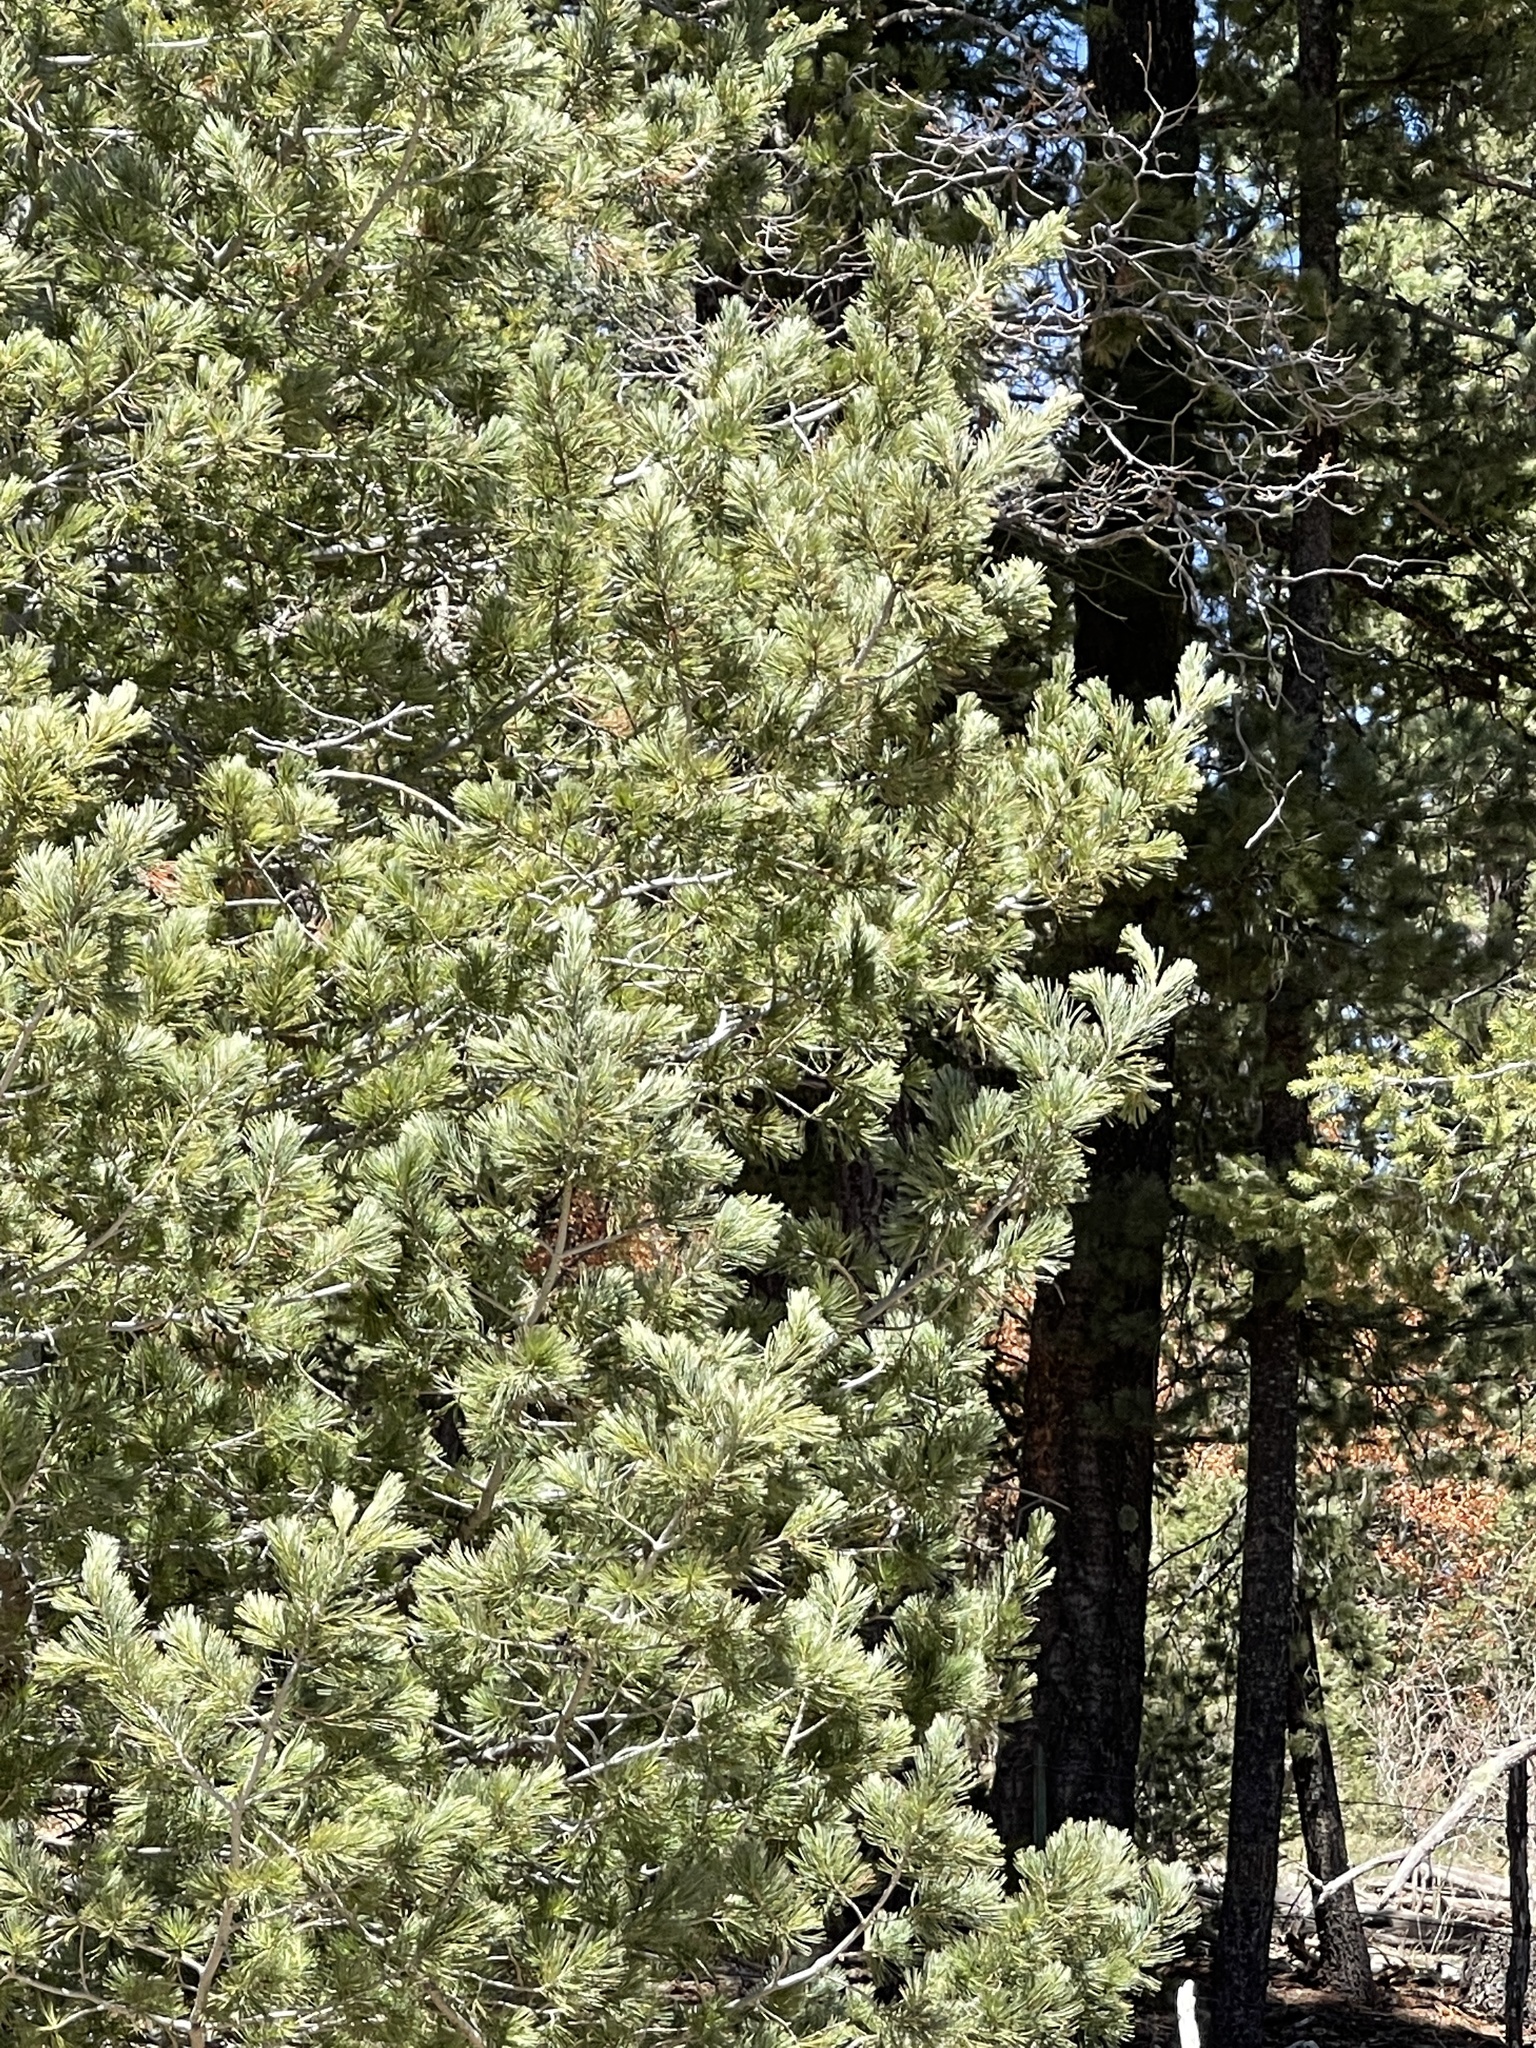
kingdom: Plantae
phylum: Tracheophyta
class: Pinopsida
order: Pinales
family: Pinaceae
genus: Pinus
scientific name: Pinus strobiformis
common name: Southwestern white pine
